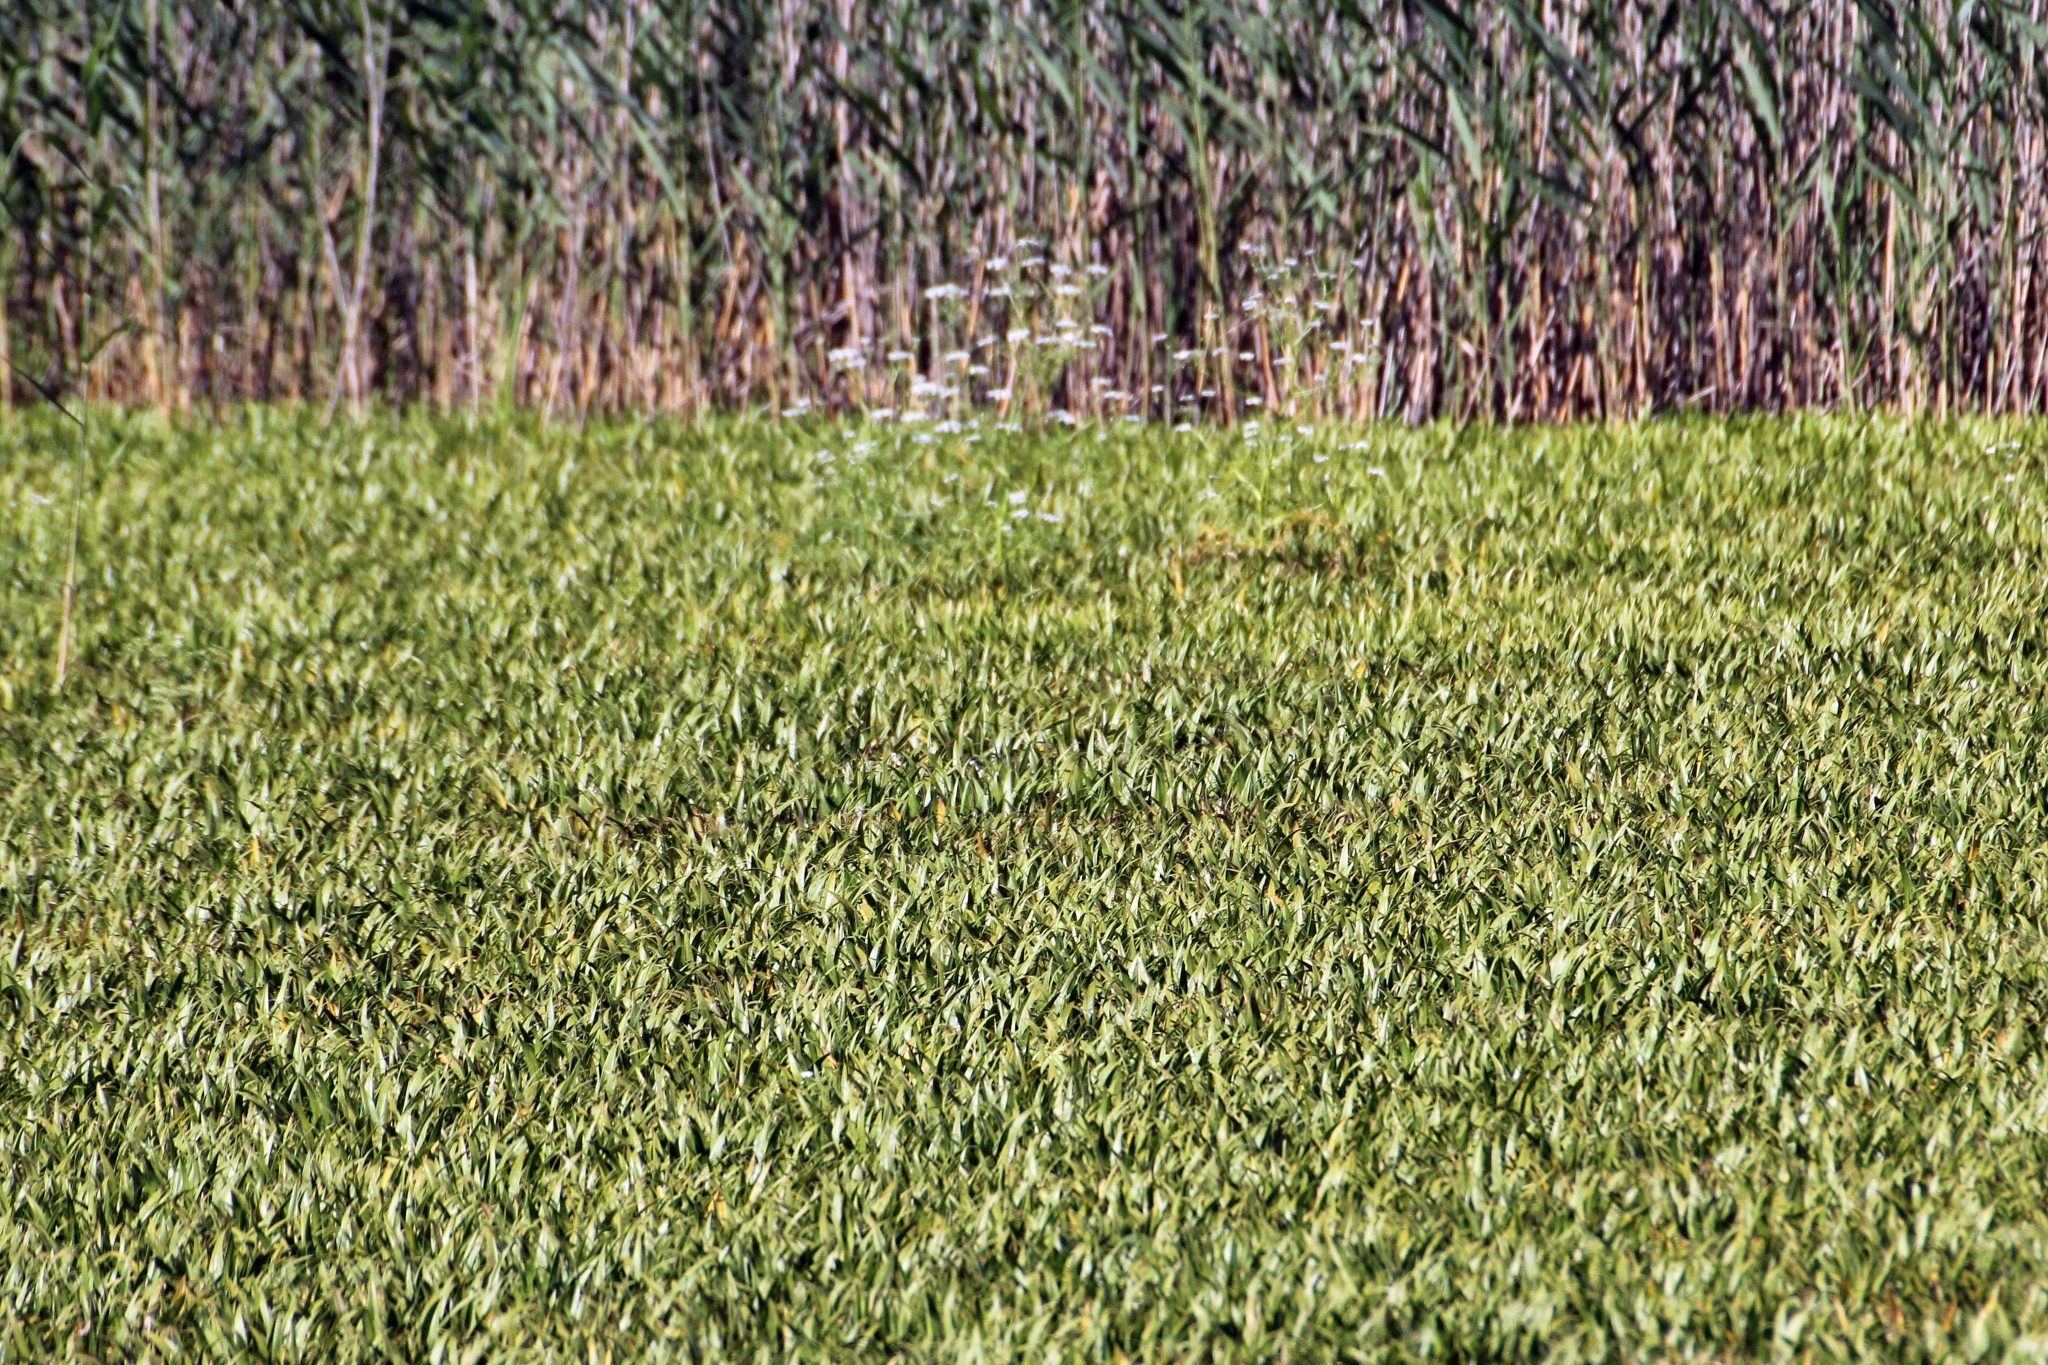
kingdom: Plantae
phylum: Tracheophyta
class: Liliopsida
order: Alismatales
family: Hydrocharitaceae
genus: Stratiotes
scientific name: Stratiotes aloides
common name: Water-soldier
